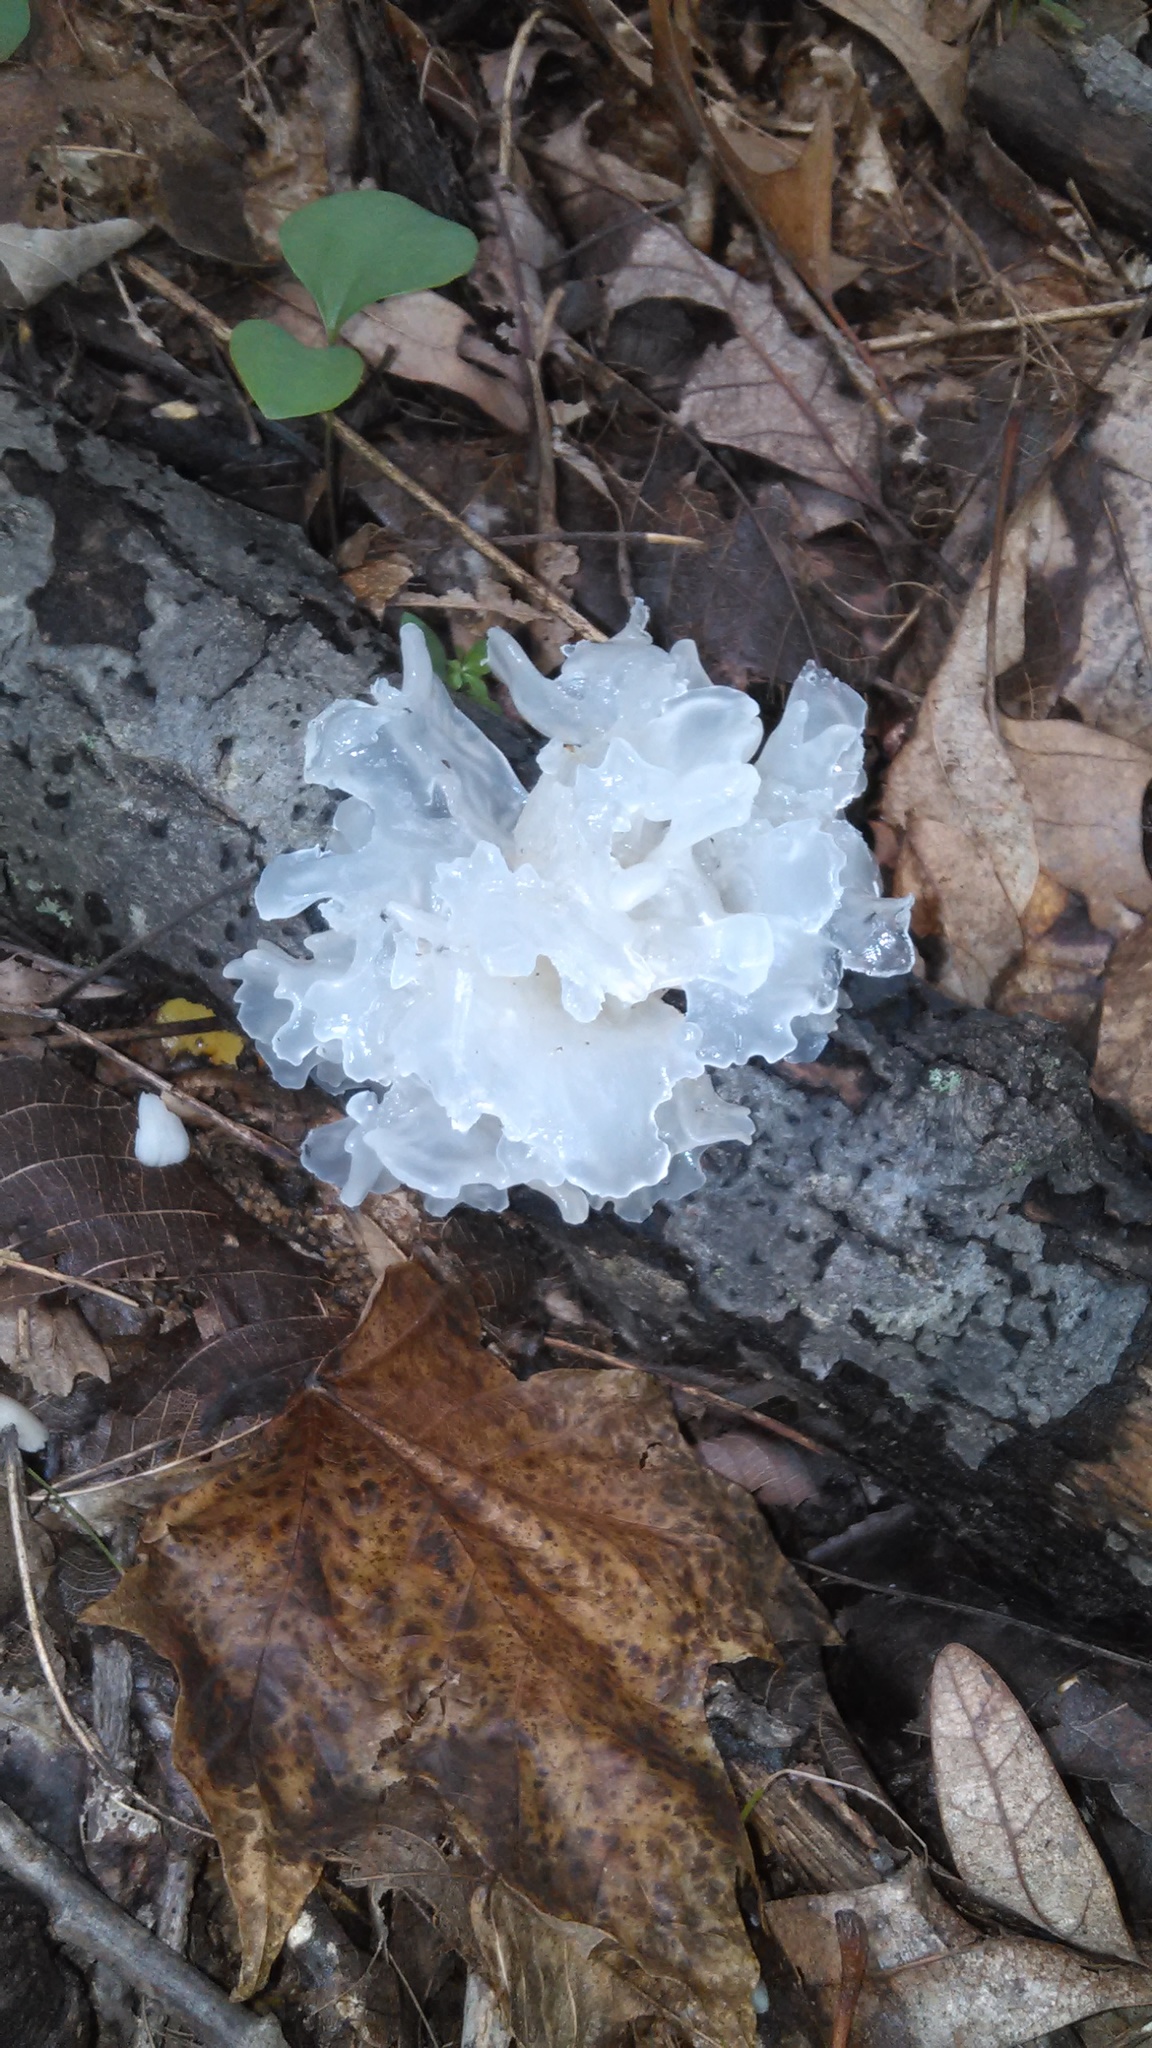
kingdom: Fungi
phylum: Basidiomycota
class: Tremellomycetes
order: Tremellales
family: Tremellaceae
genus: Tremella
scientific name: Tremella fuciformis
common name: Snow fungus
